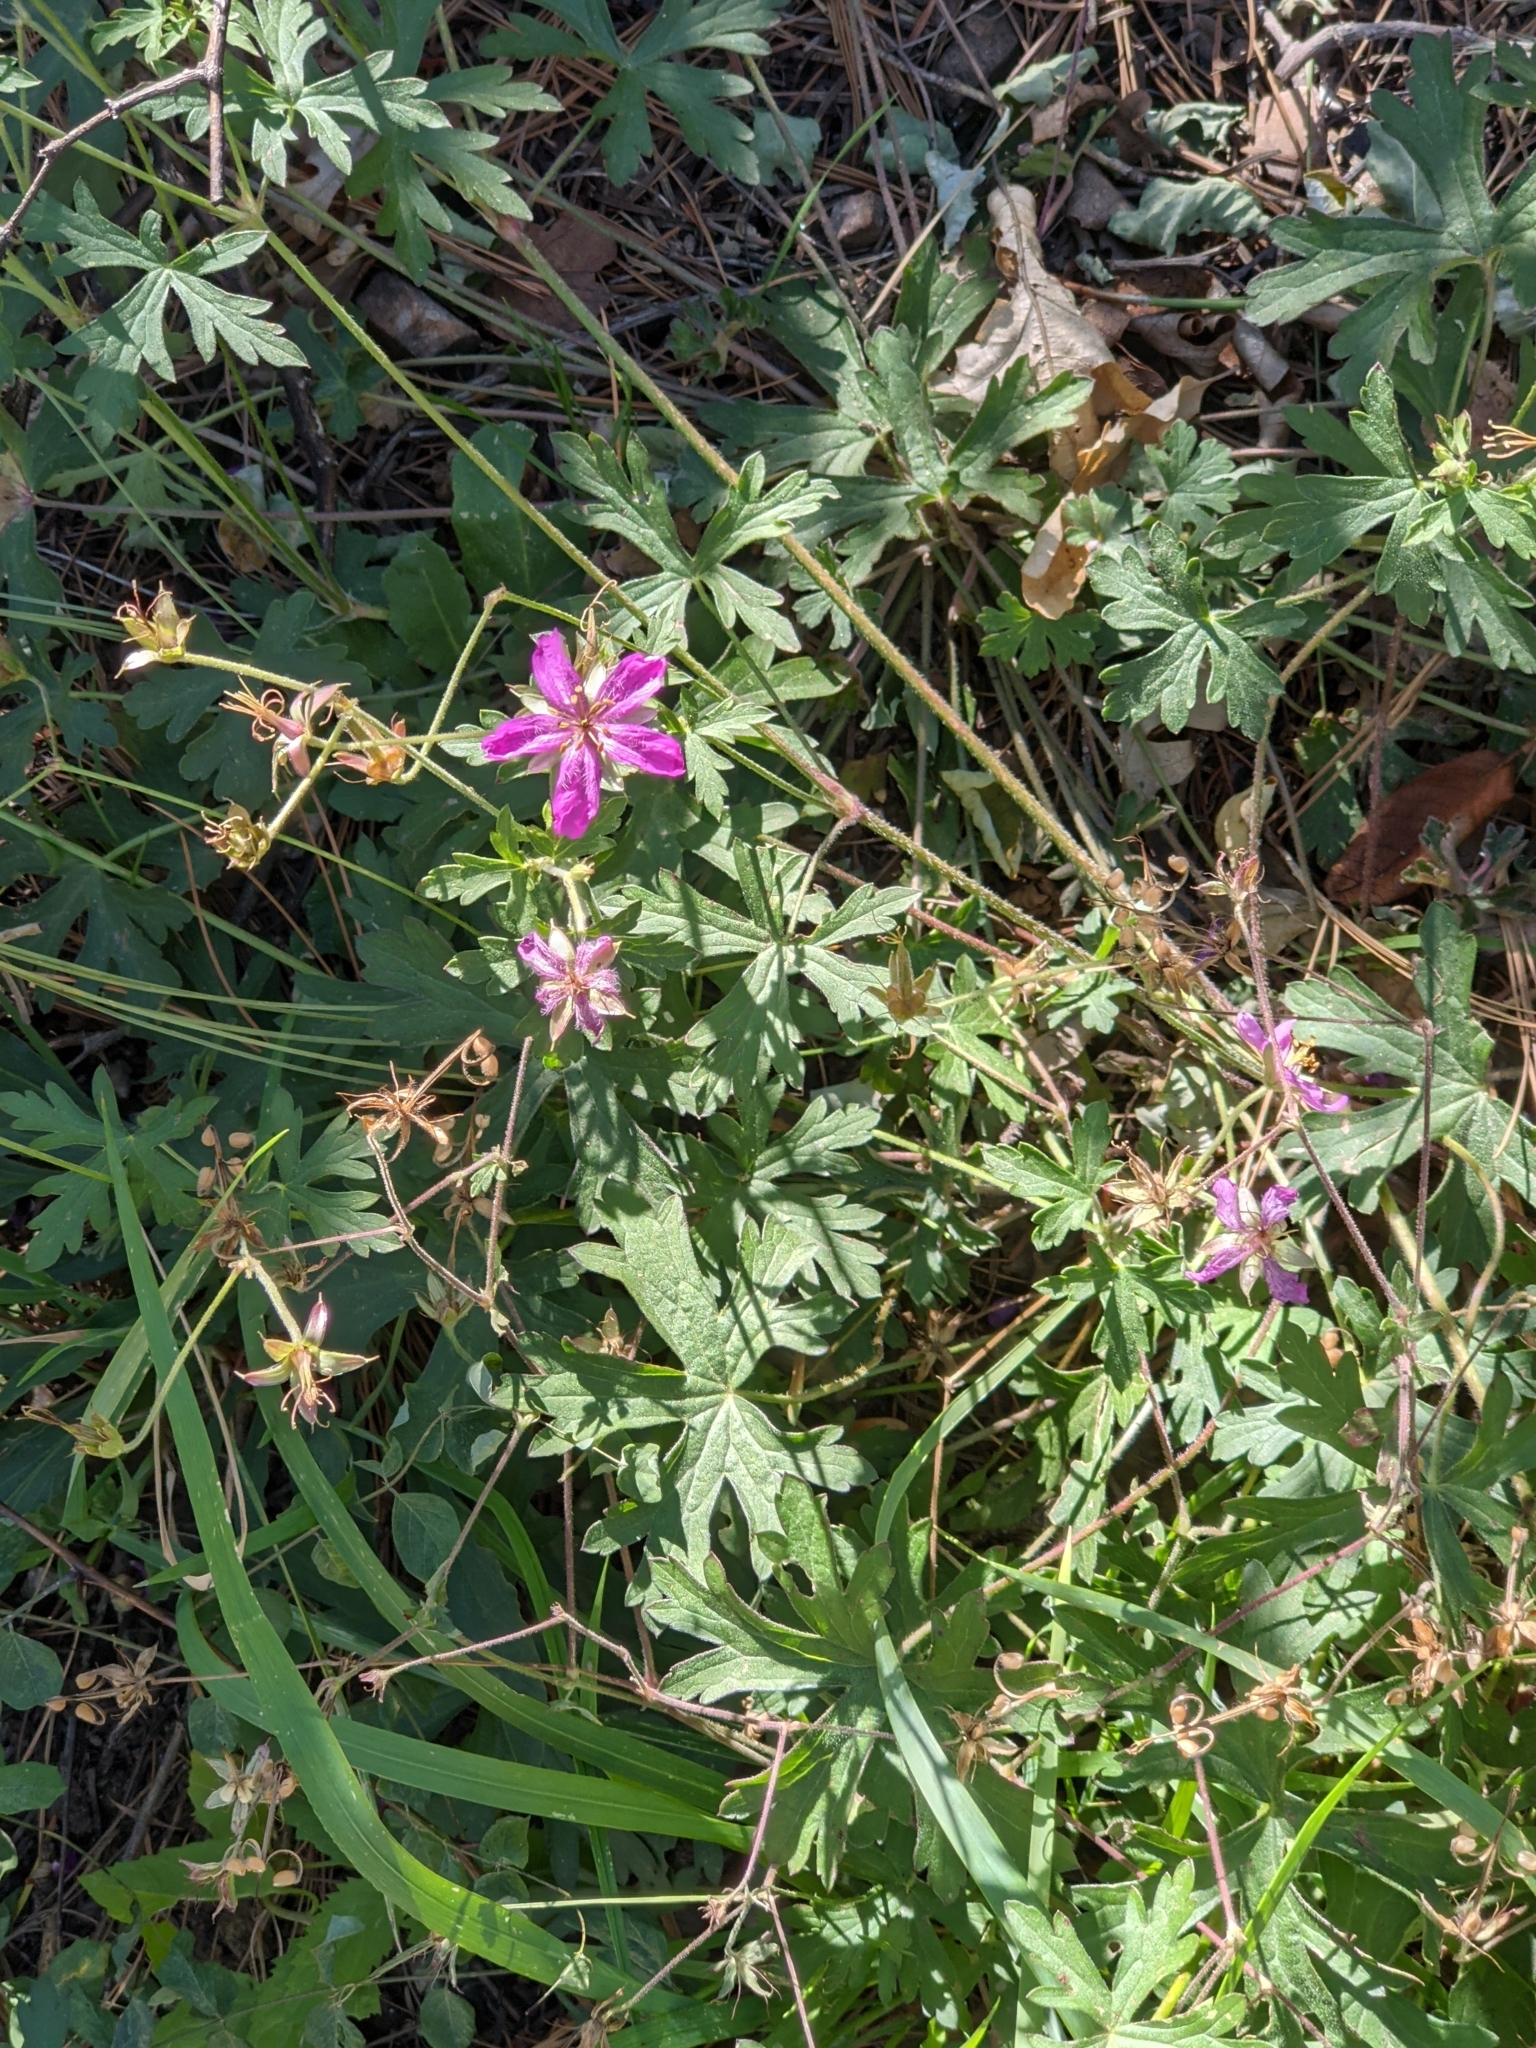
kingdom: Plantae
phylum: Tracheophyta
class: Magnoliopsida
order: Geraniales
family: Geraniaceae
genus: Geranium
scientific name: Geranium caespitosum
